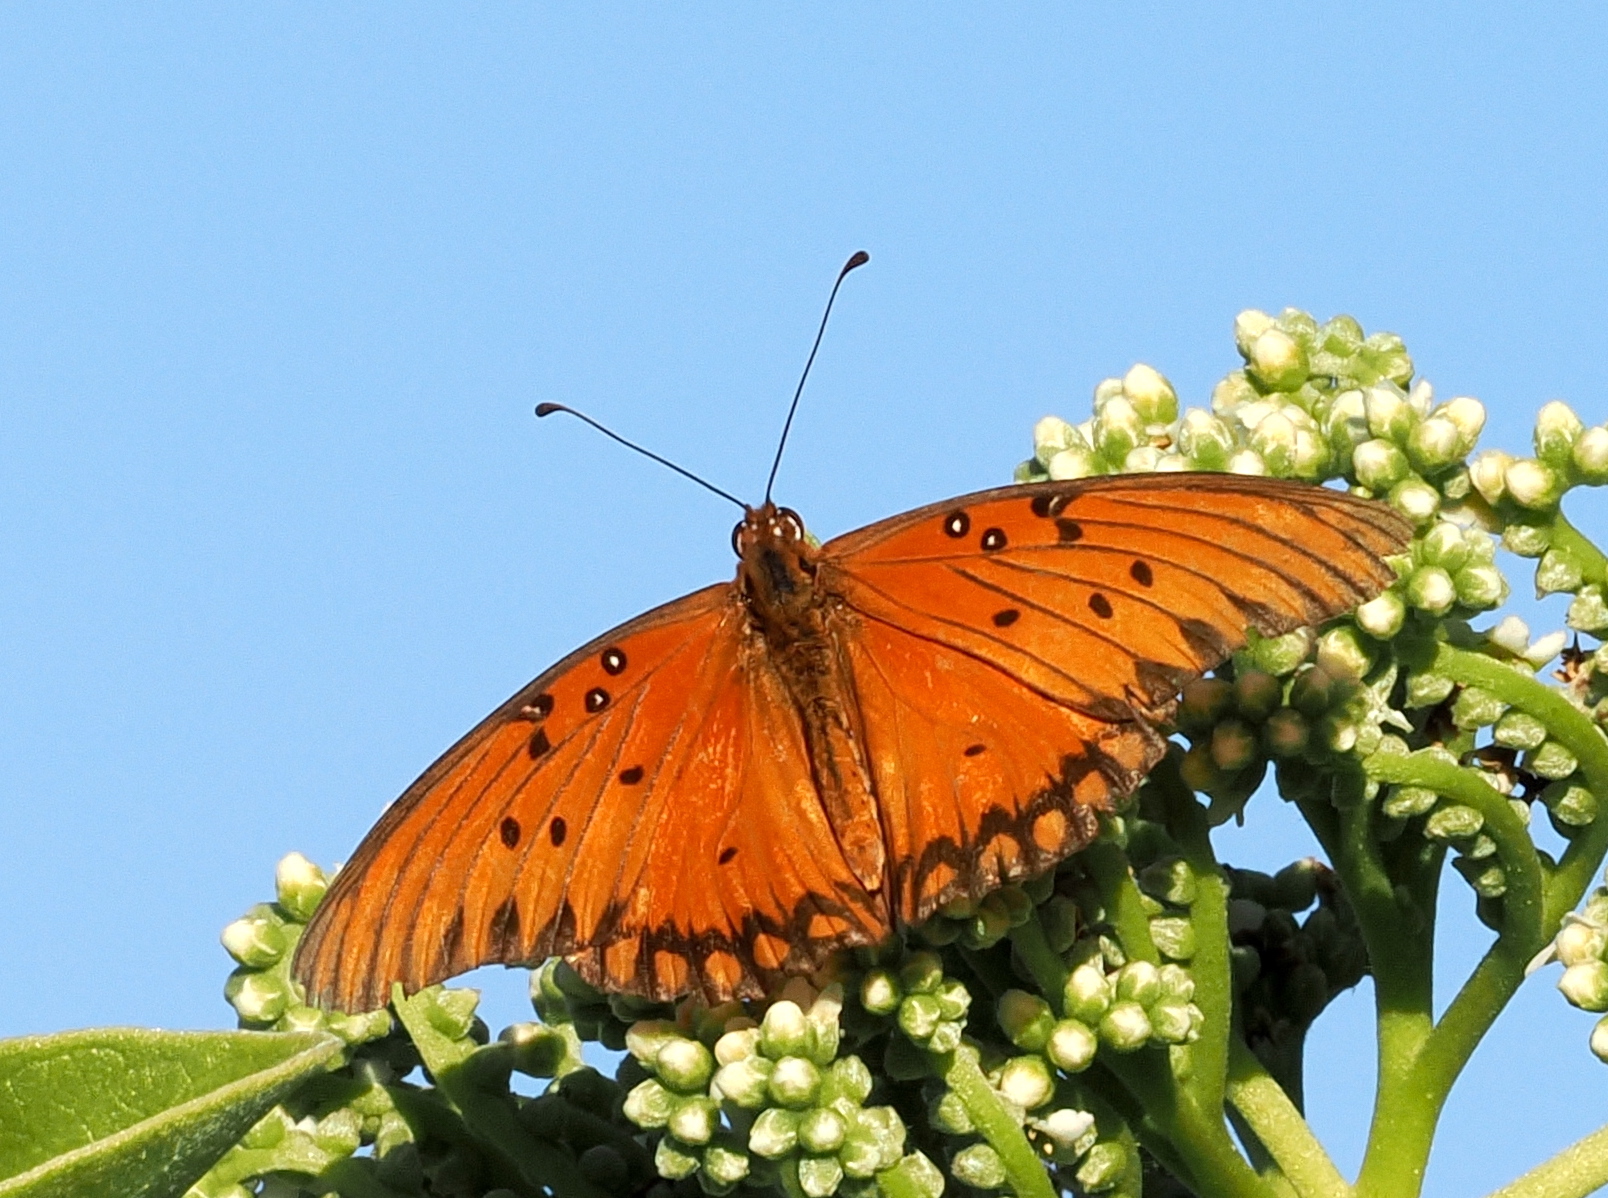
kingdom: Animalia
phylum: Arthropoda
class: Insecta
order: Lepidoptera
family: Nymphalidae
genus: Dione
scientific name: Dione vanillae
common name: Gulf fritillary
